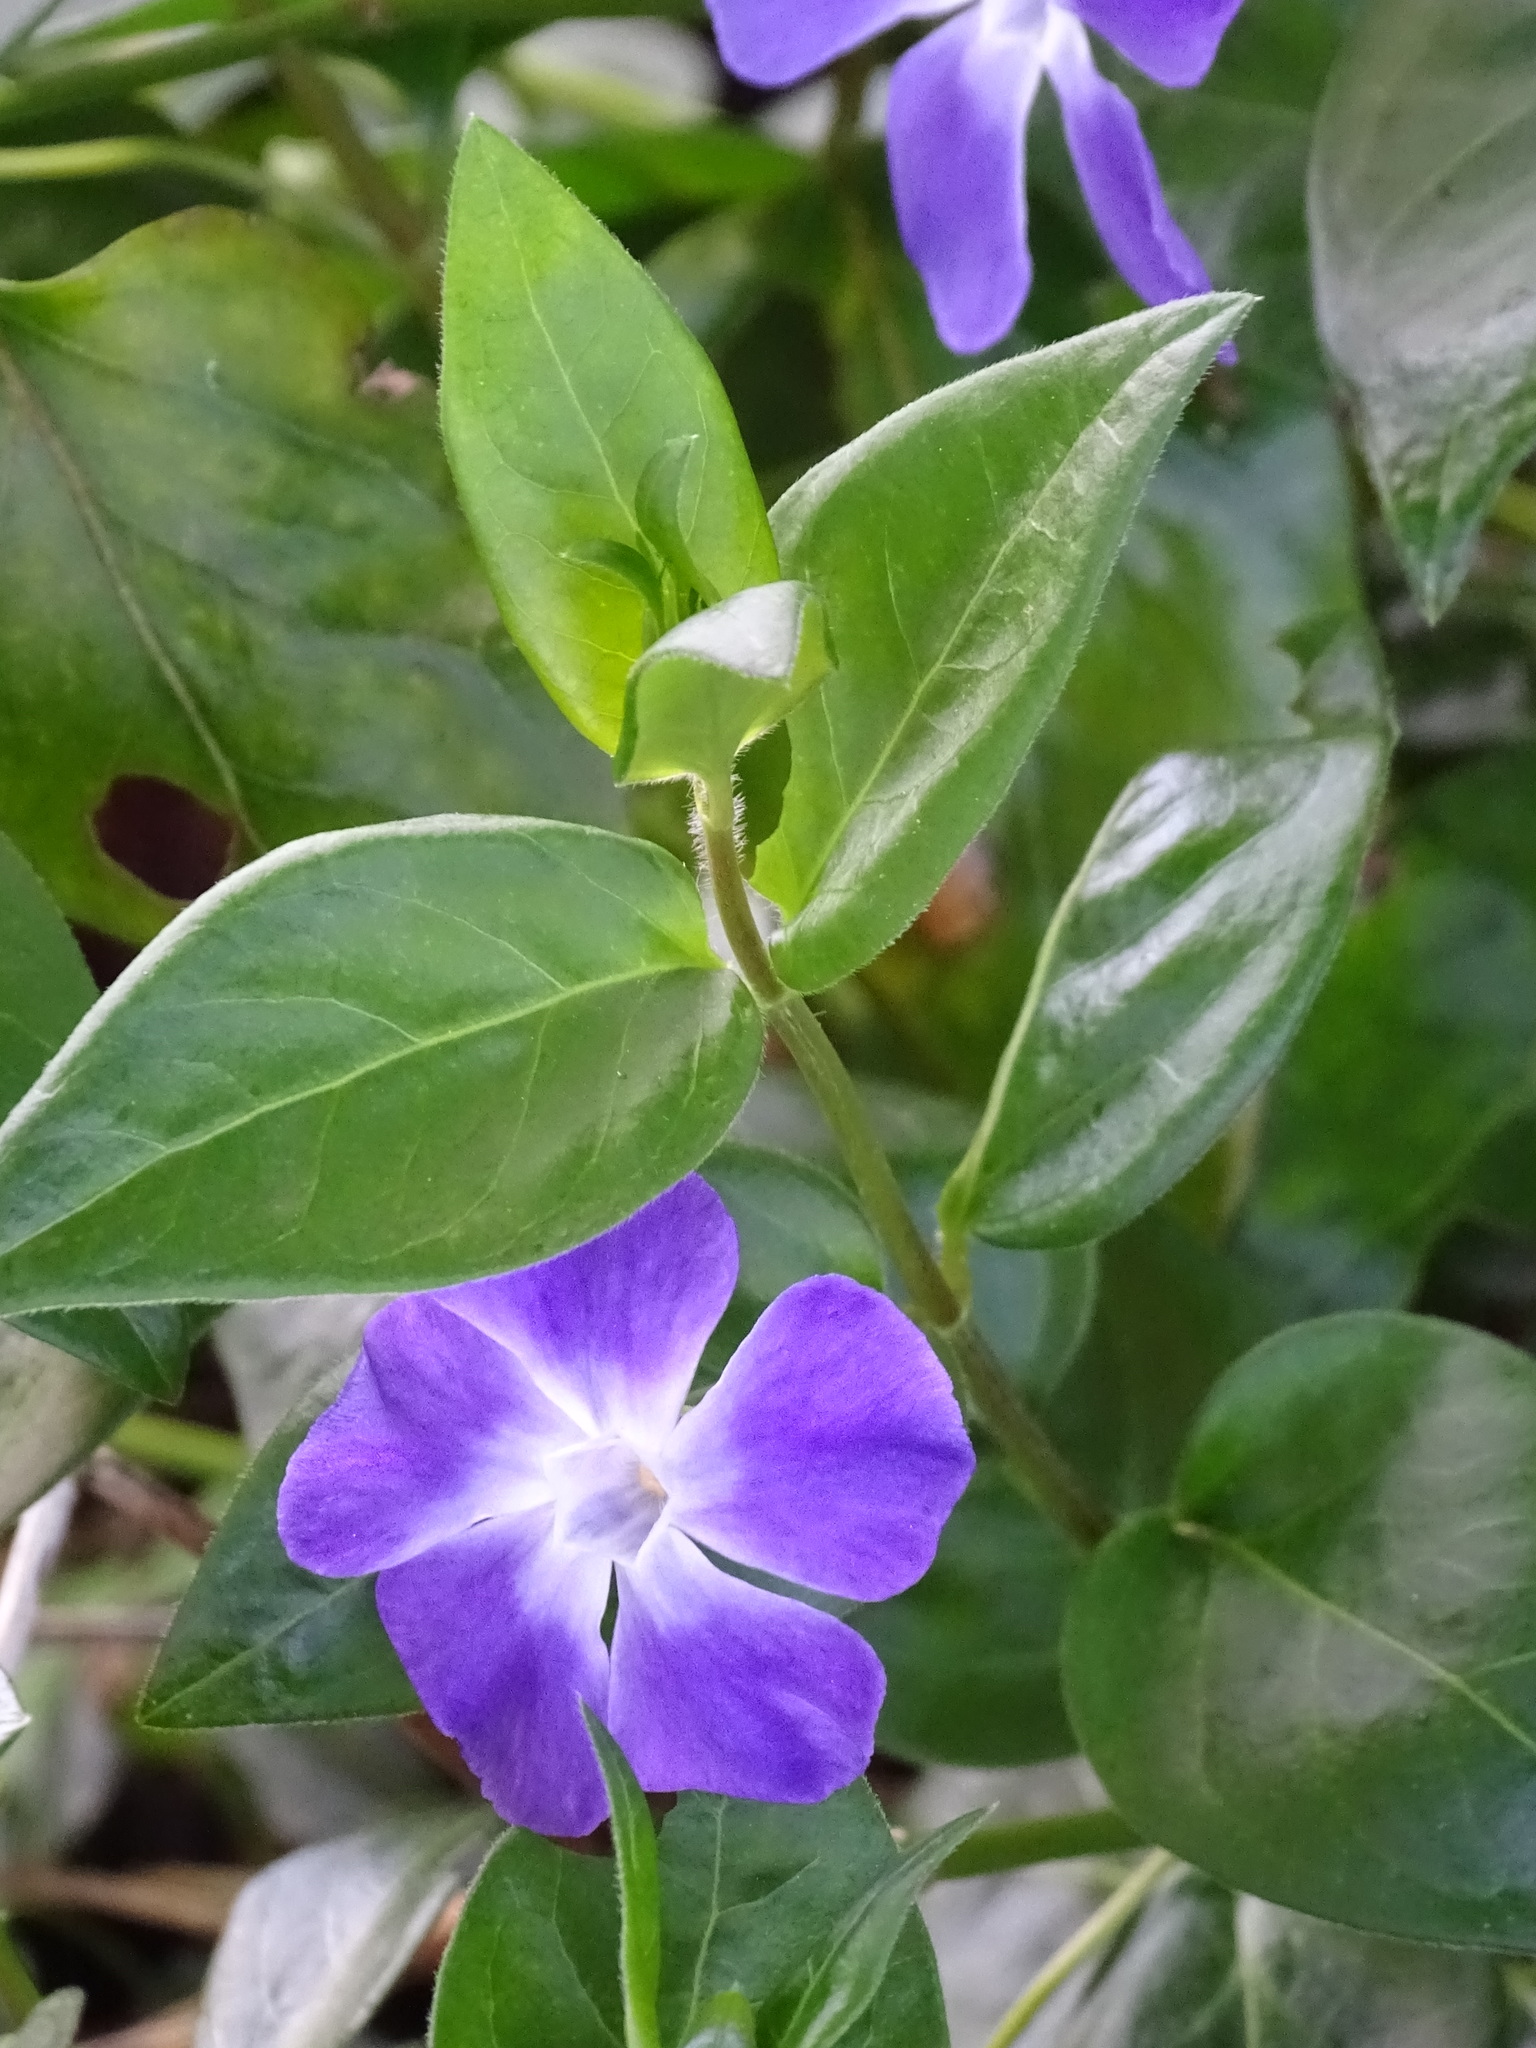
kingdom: Plantae
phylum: Tracheophyta
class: Magnoliopsida
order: Gentianales
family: Apocynaceae
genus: Vinca
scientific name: Vinca major
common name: Greater periwinkle
